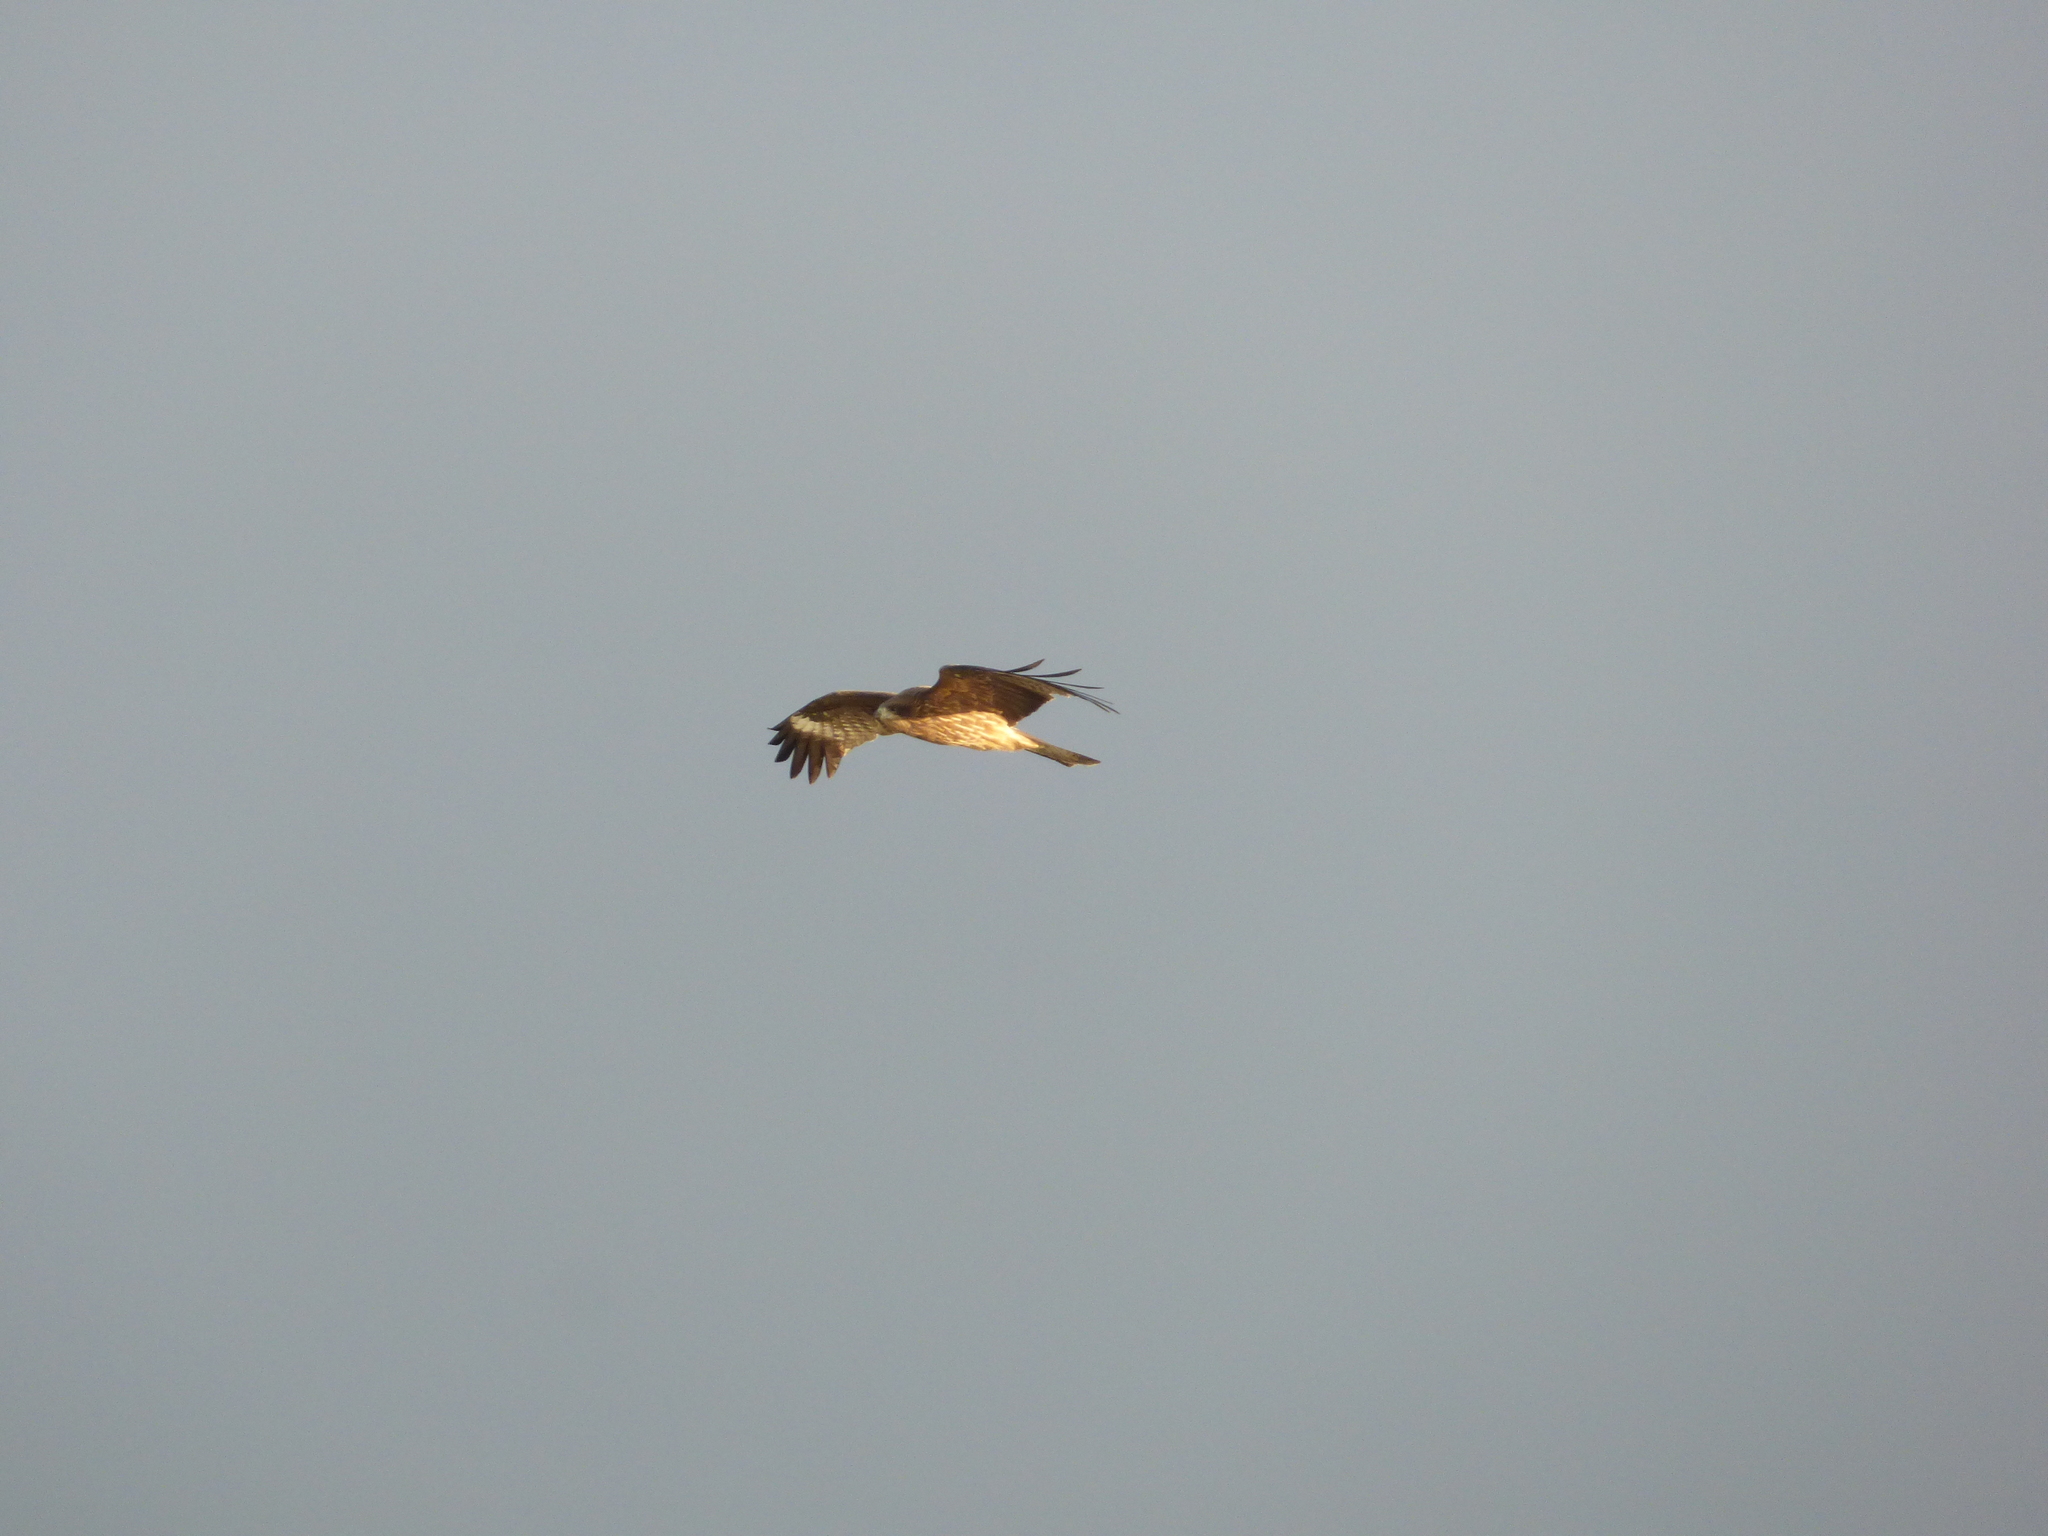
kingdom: Animalia
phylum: Chordata
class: Aves
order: Accipitriformes
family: Accipitridae
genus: Milvus
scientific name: Milvus migrans
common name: Black kite
